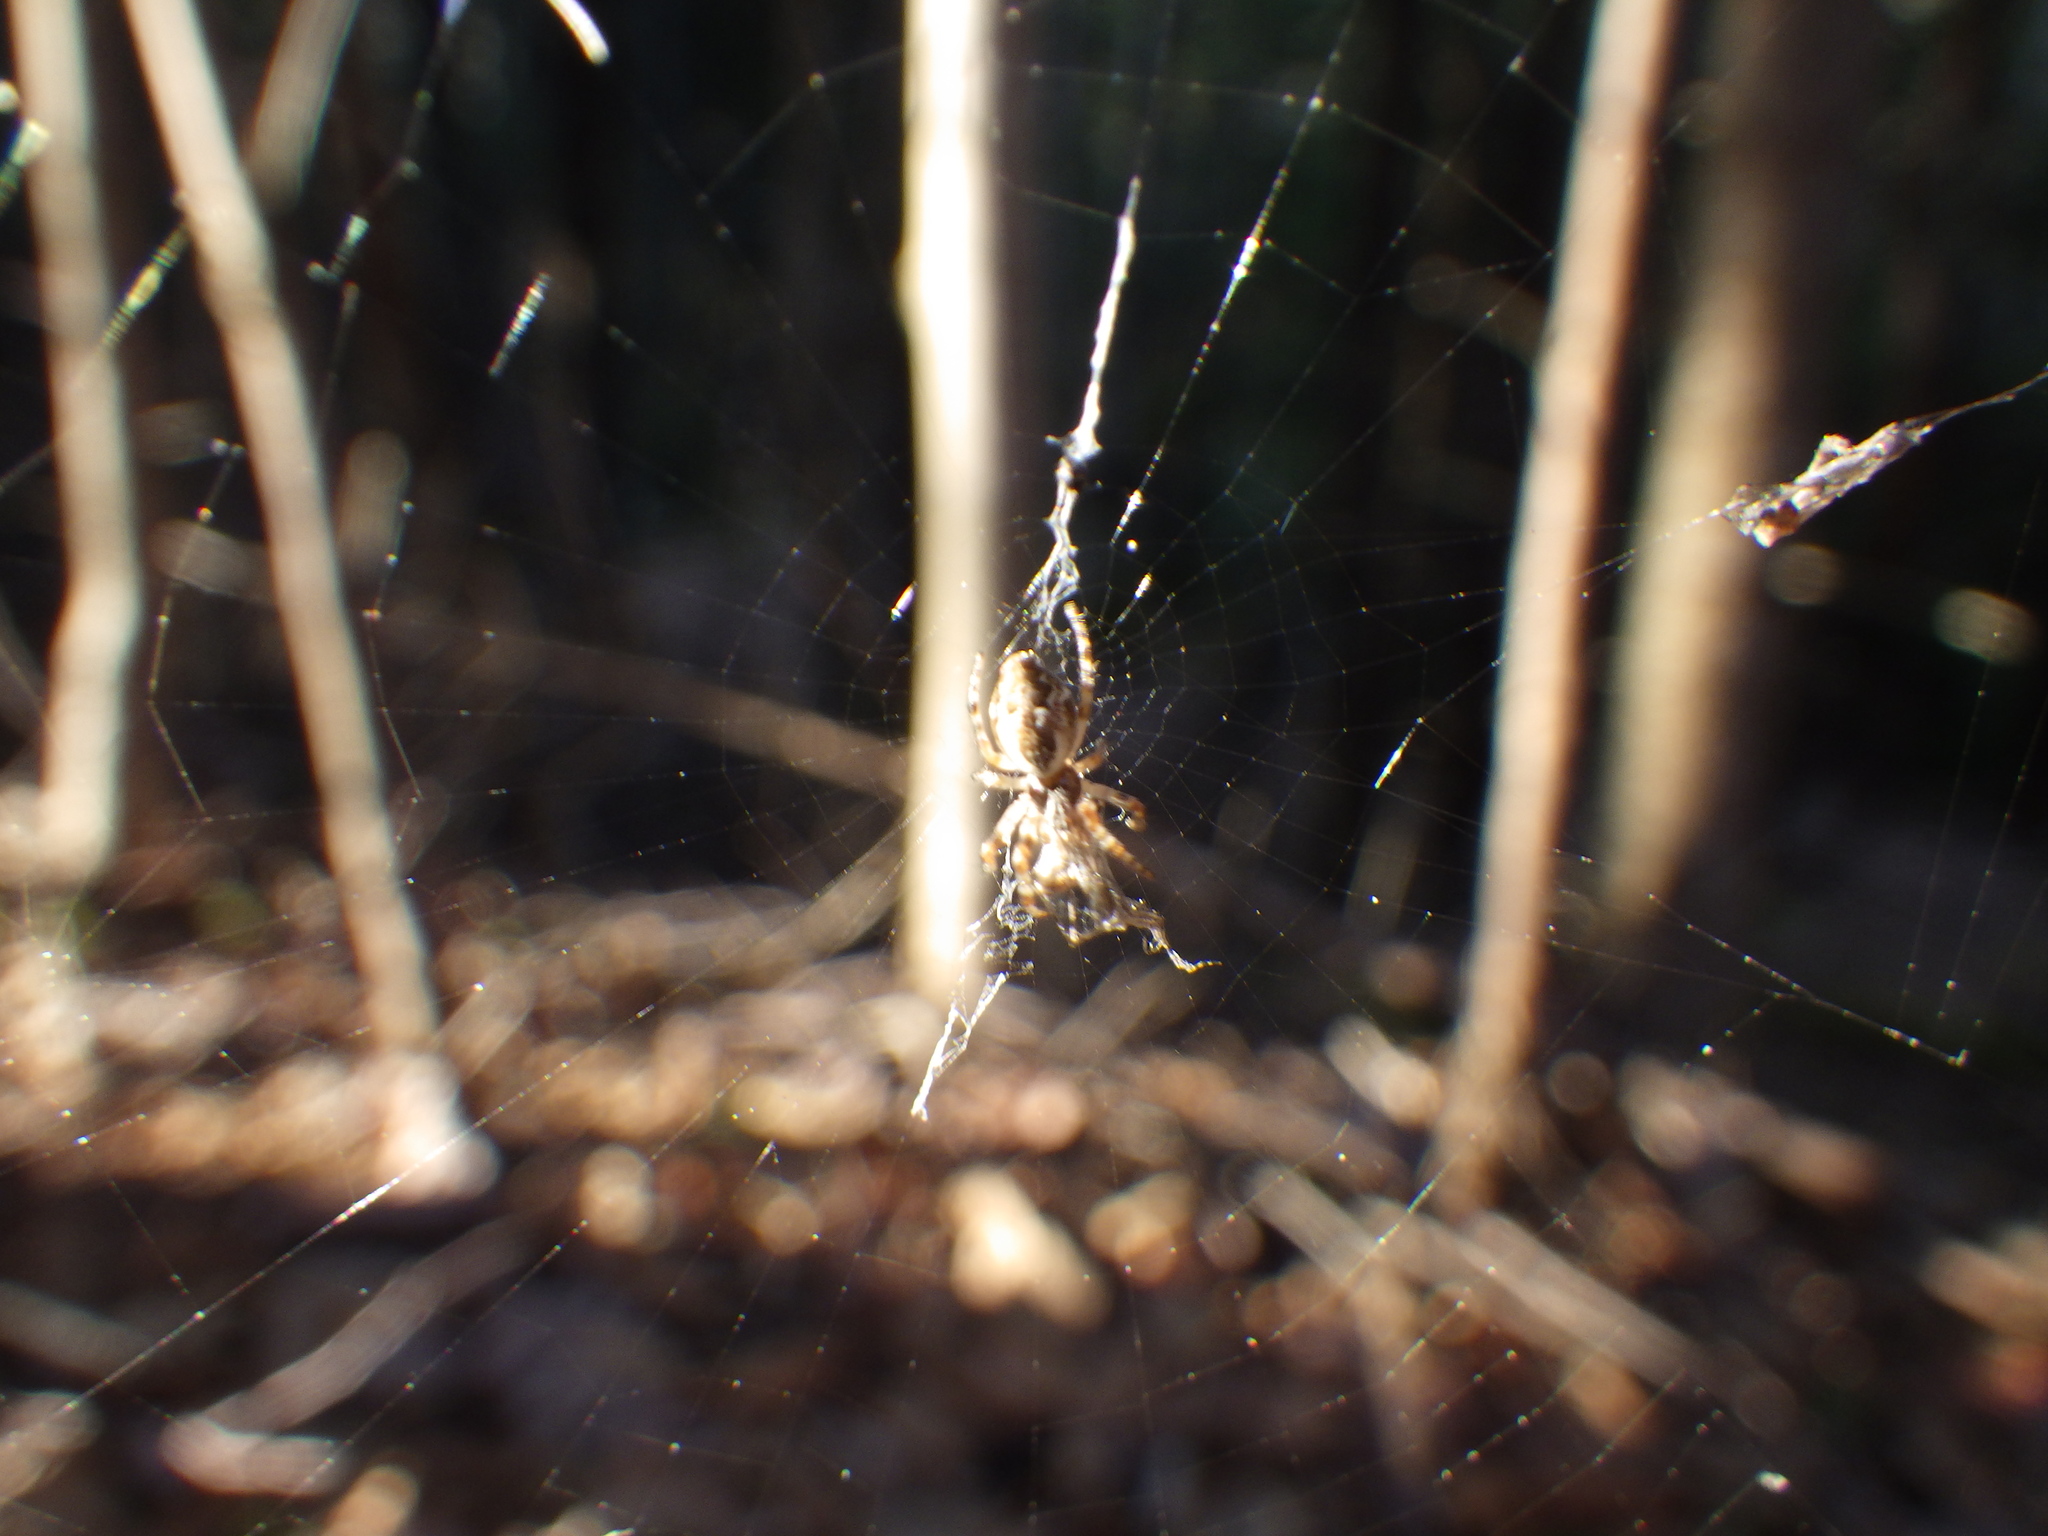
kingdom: Animalia
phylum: Arthropoda
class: Arachnida
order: Araneae
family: Araneidae
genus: Cyclosa
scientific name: Cyclosa conica
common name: Conical trashline orbweaver
